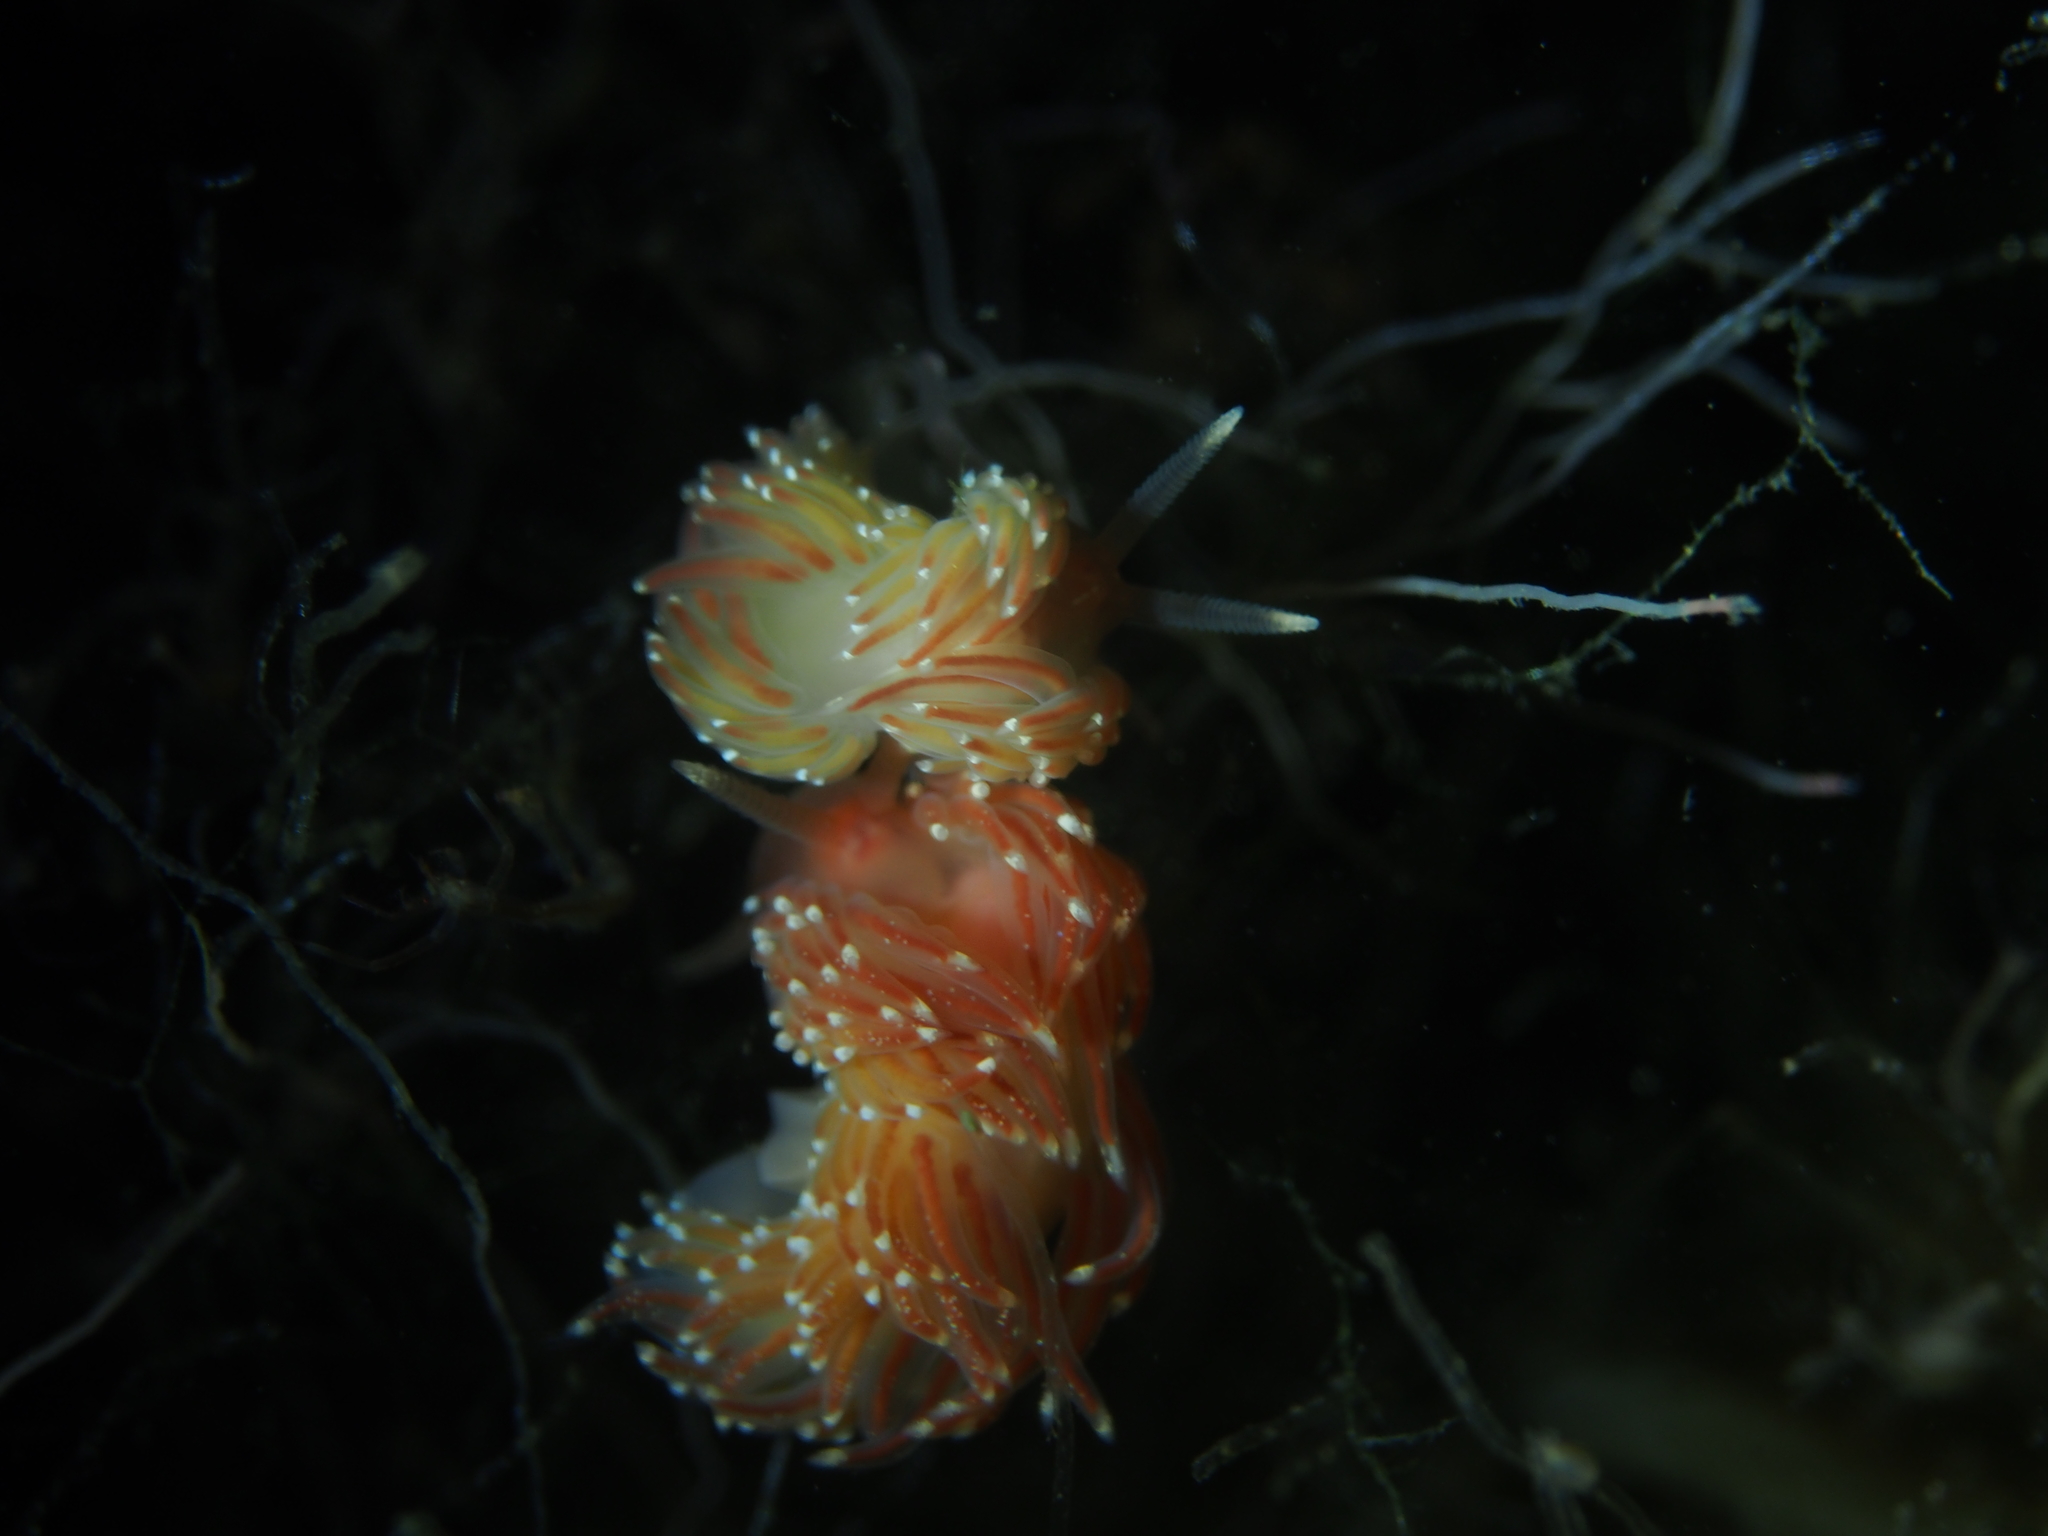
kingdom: Animalia
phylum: Mollusca
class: Gastropoda
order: Nudibranchia
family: Facelinidae
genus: Facelina
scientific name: Facelina bostoniensis
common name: Boston facelina
